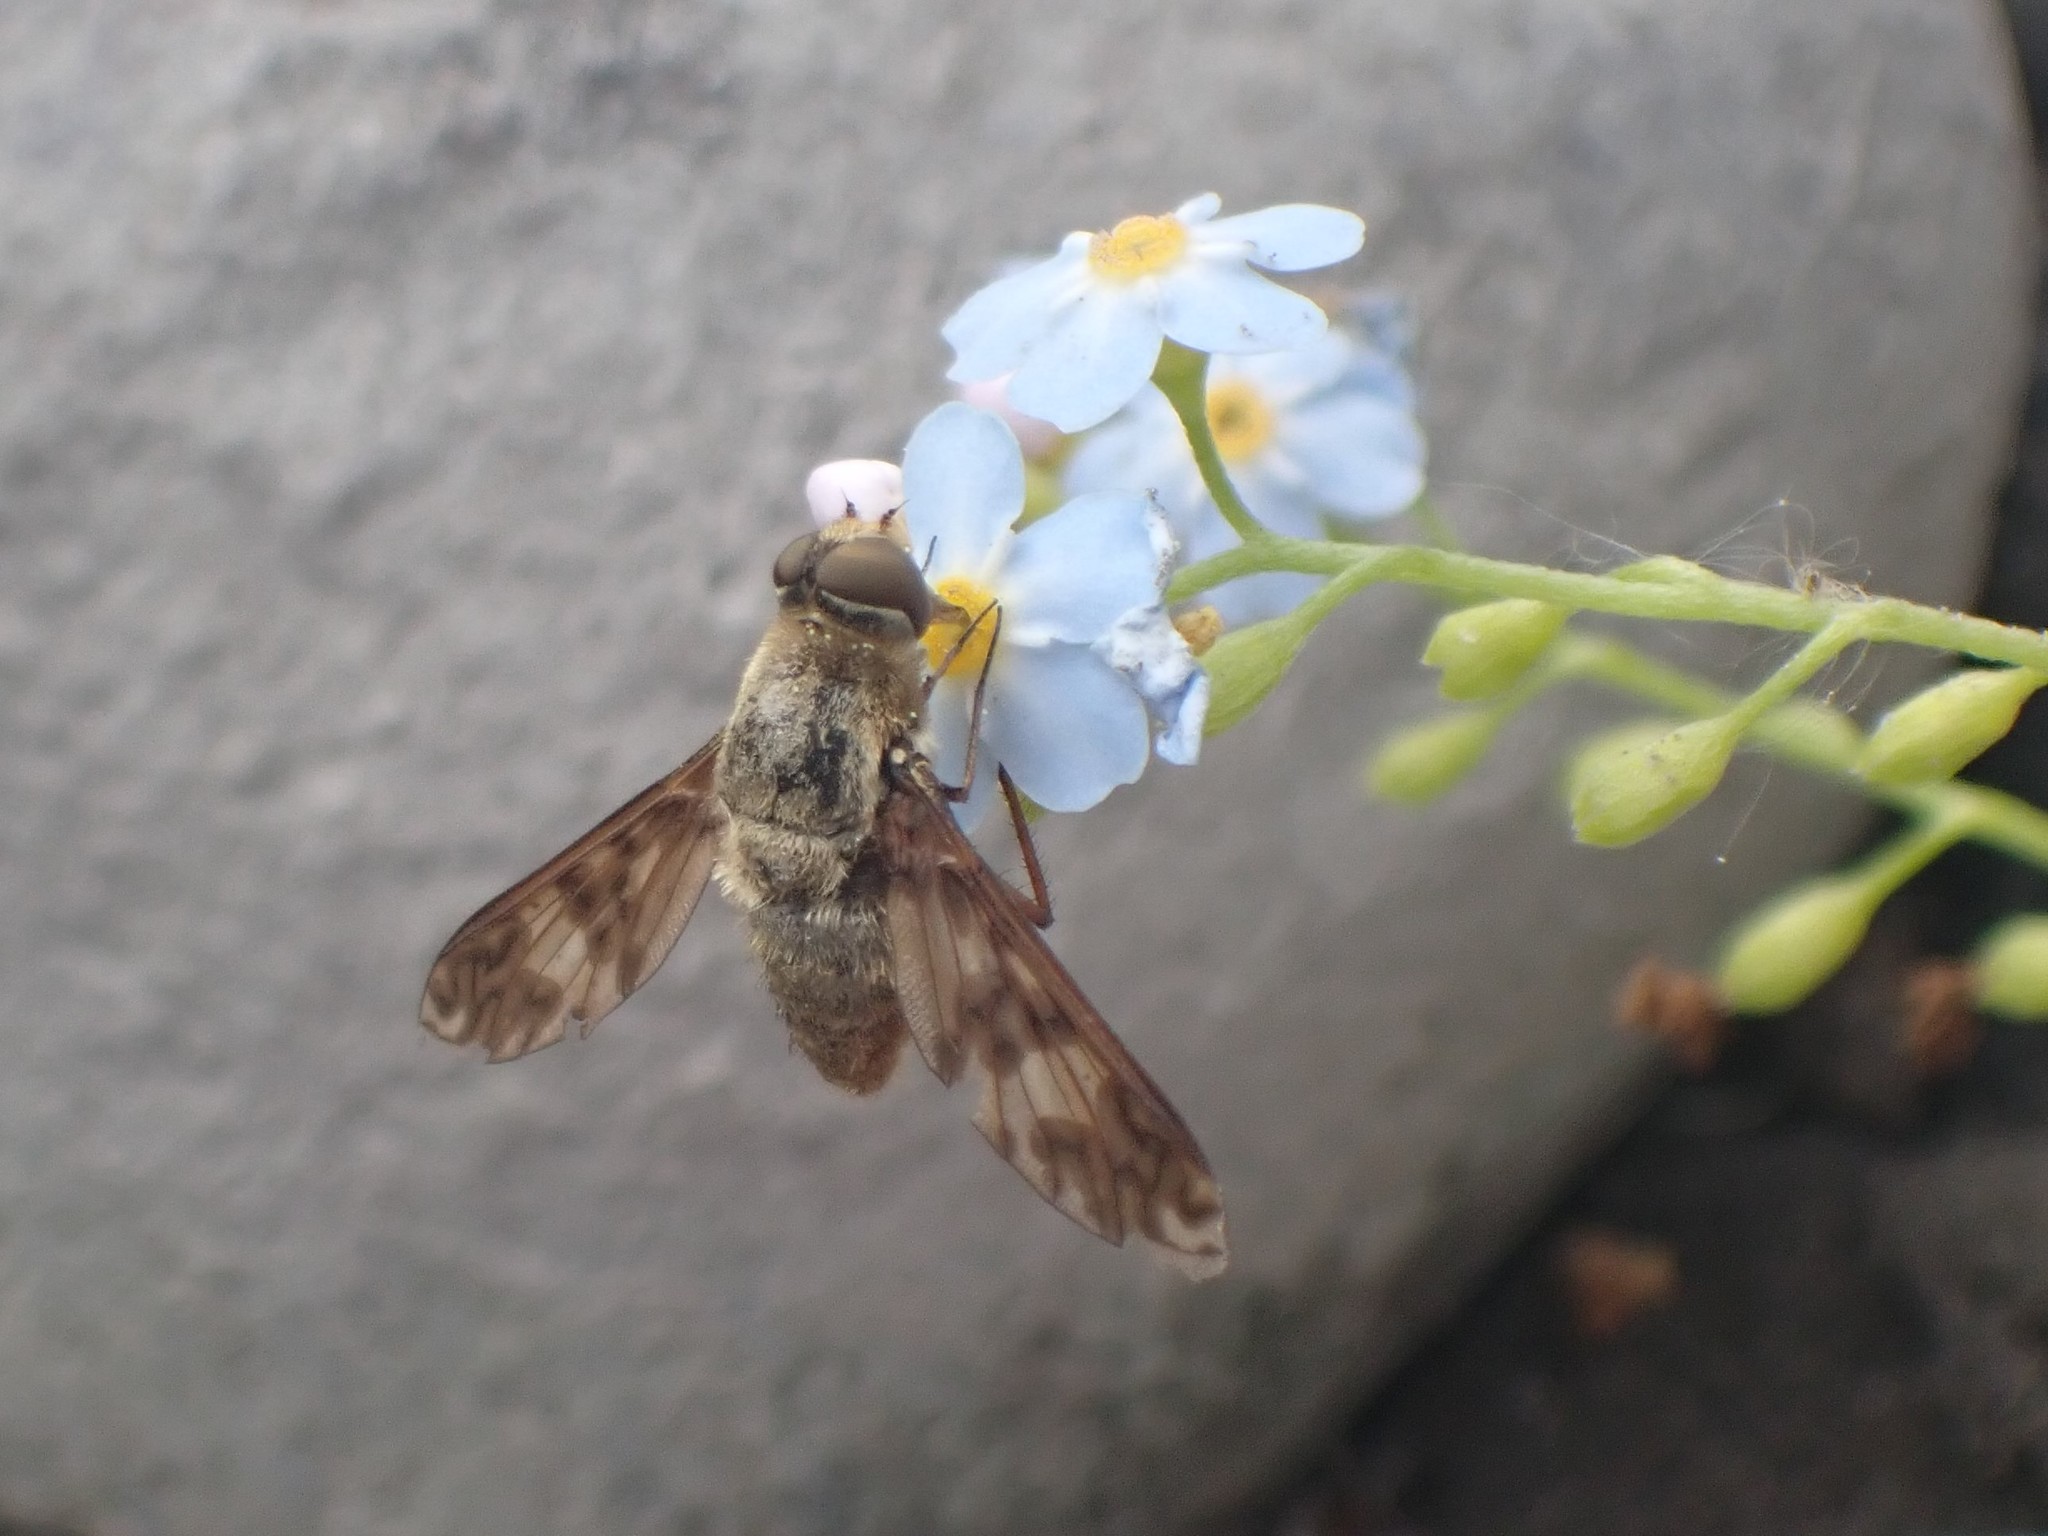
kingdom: Animalia
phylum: Arthropoda
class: Insecta
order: Diptera
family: Bombyliidae
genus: Dipalta
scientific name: Dipalta serpentina
